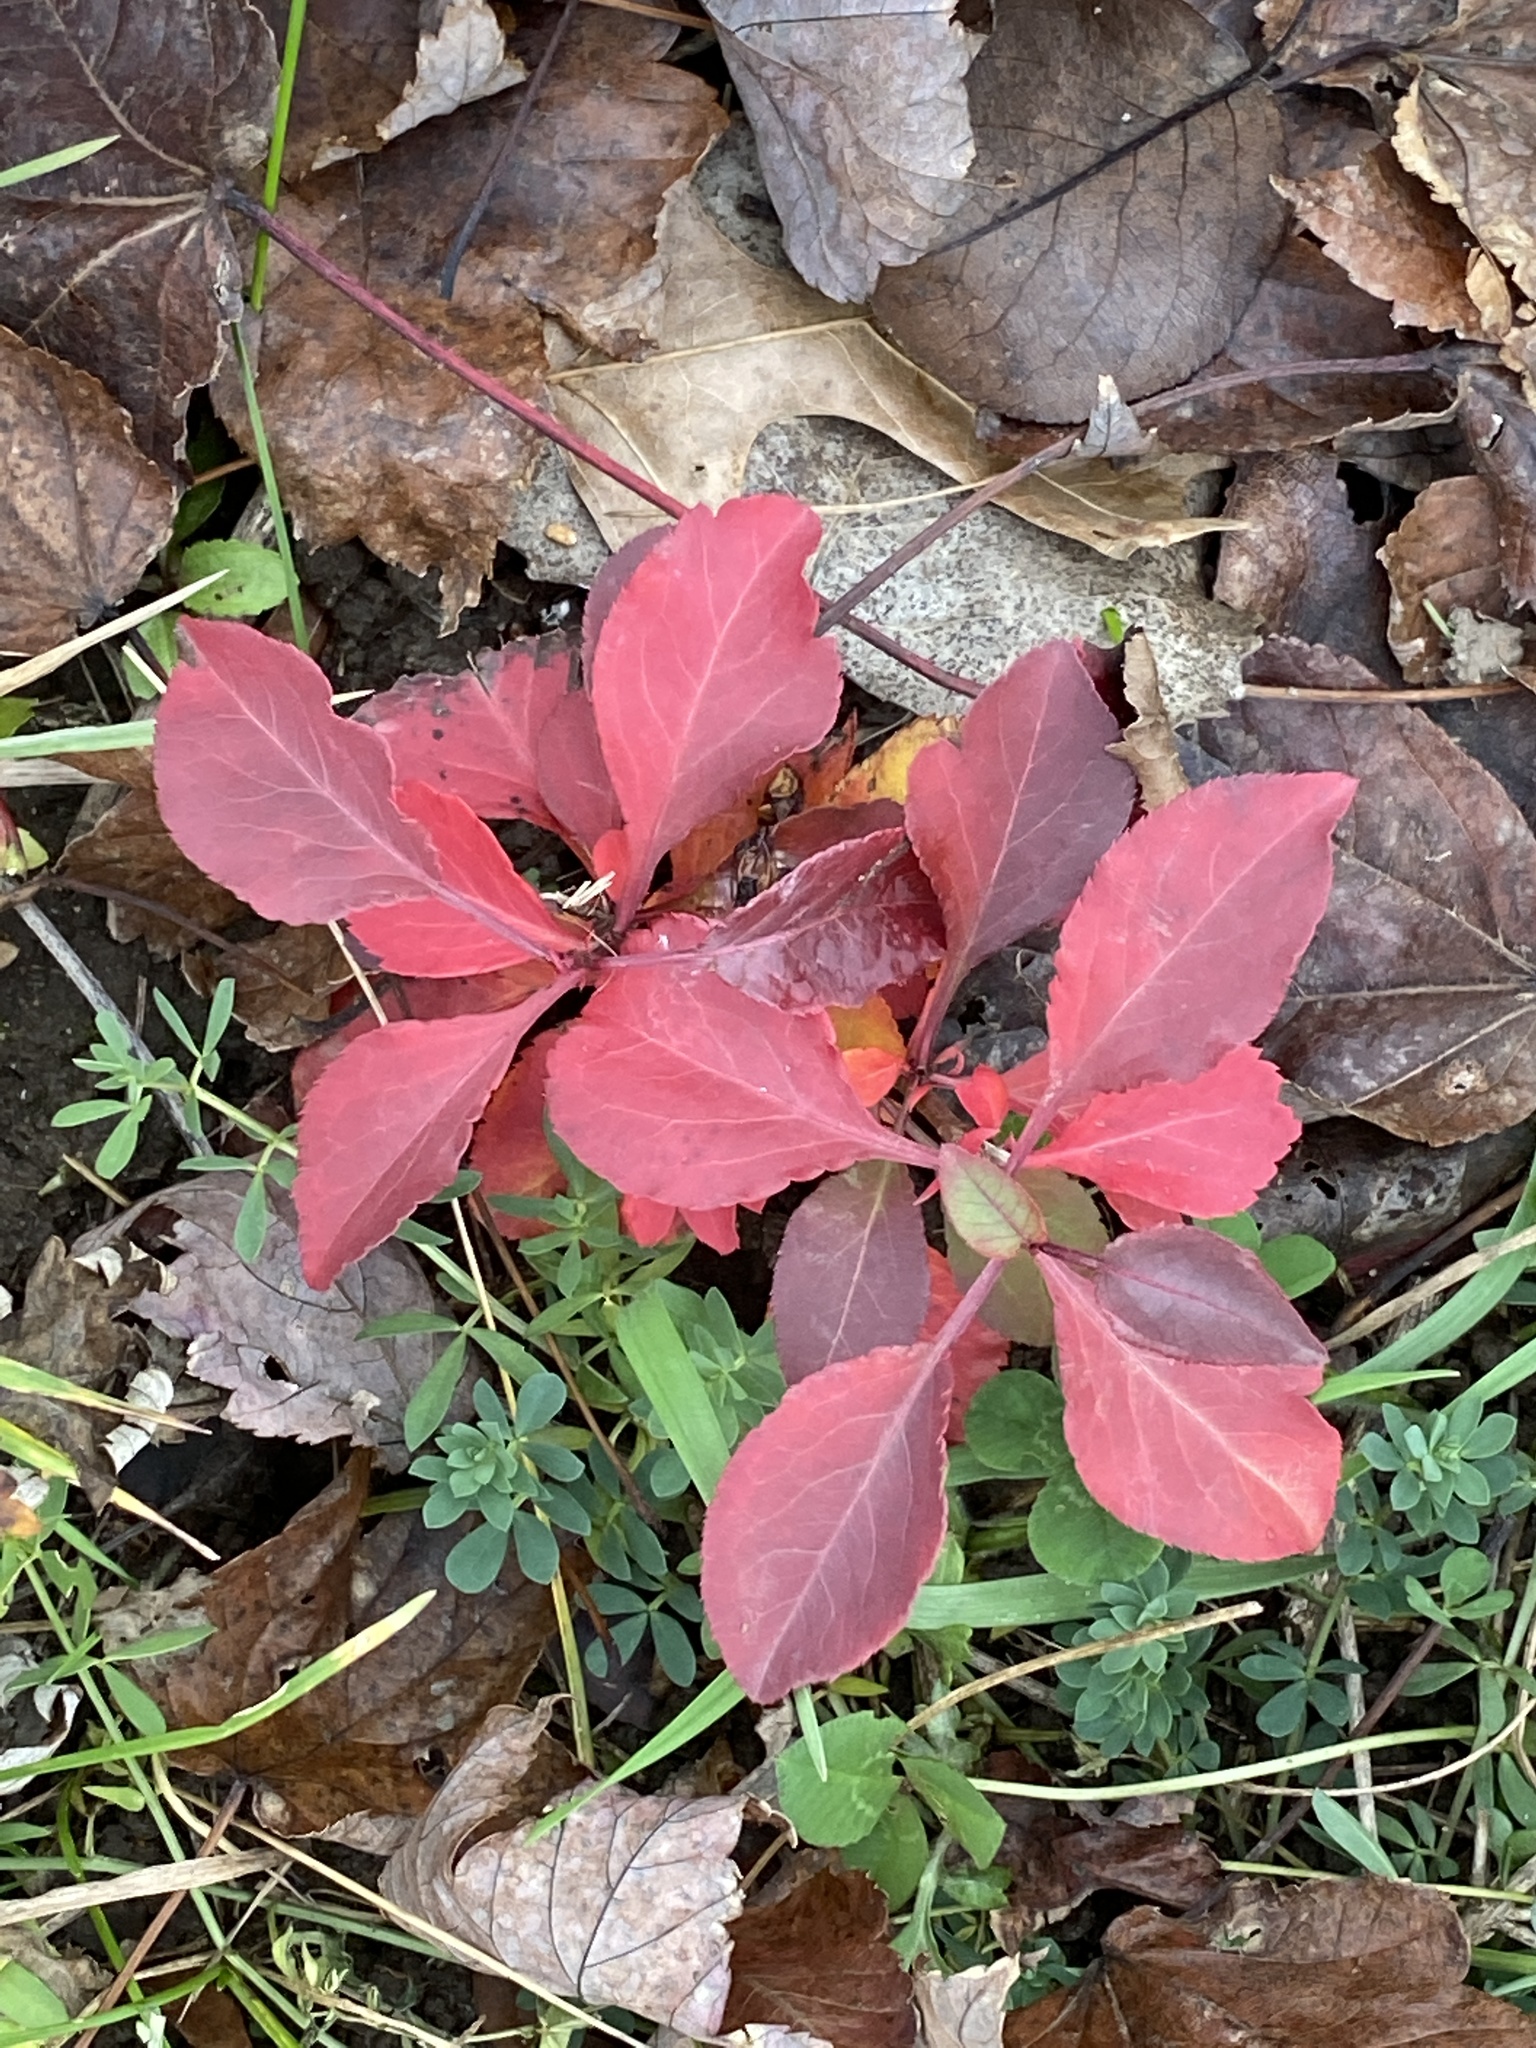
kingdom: Plantae
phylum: Tracheophyta
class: Magnoliopsida
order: Rosales
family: Rosaceae
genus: Pyrus
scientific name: Pyrus calleryana
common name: Callery pear
